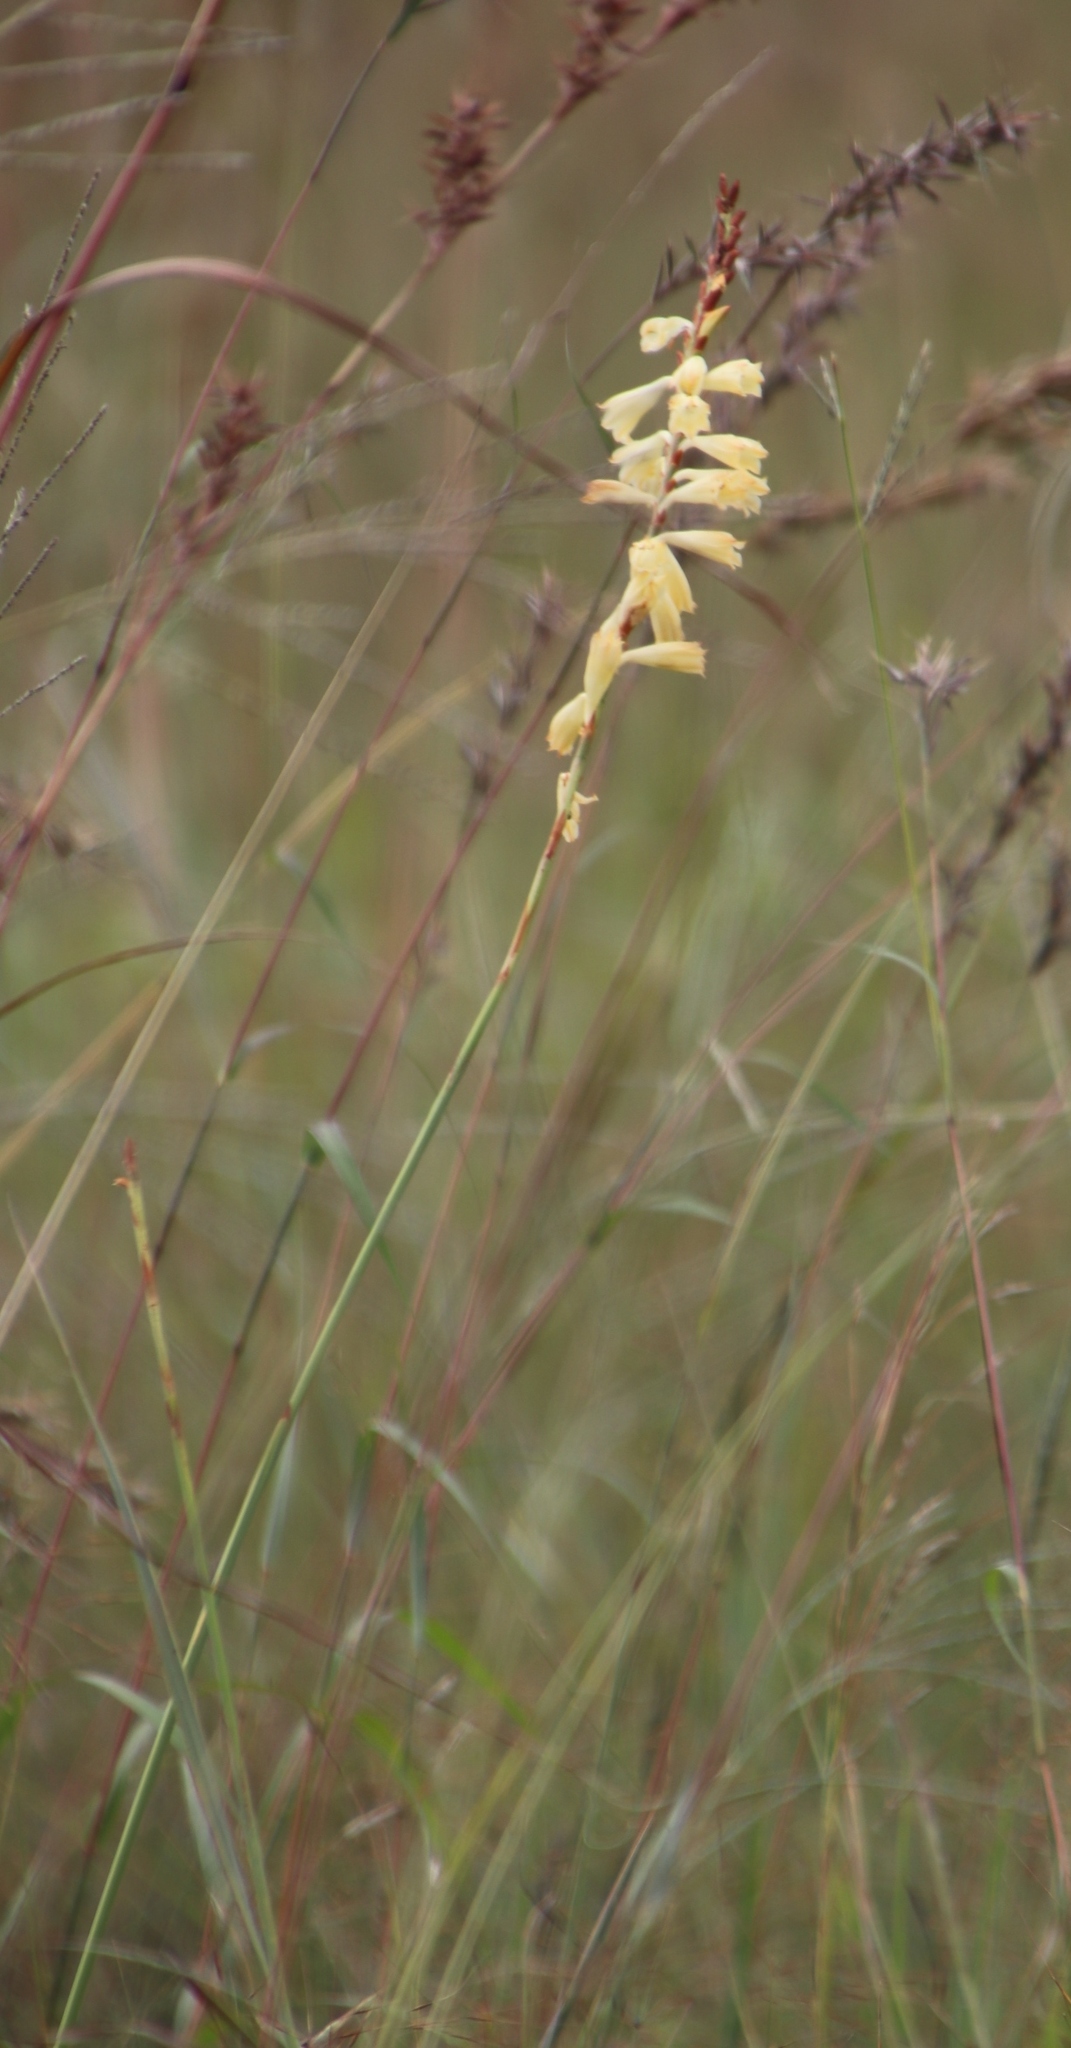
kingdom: Plantae
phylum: Tracheophyta
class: Liliopsida
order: Asparagales
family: Iridaceae
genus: Watsonia
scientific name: Watsonia watsonioides
